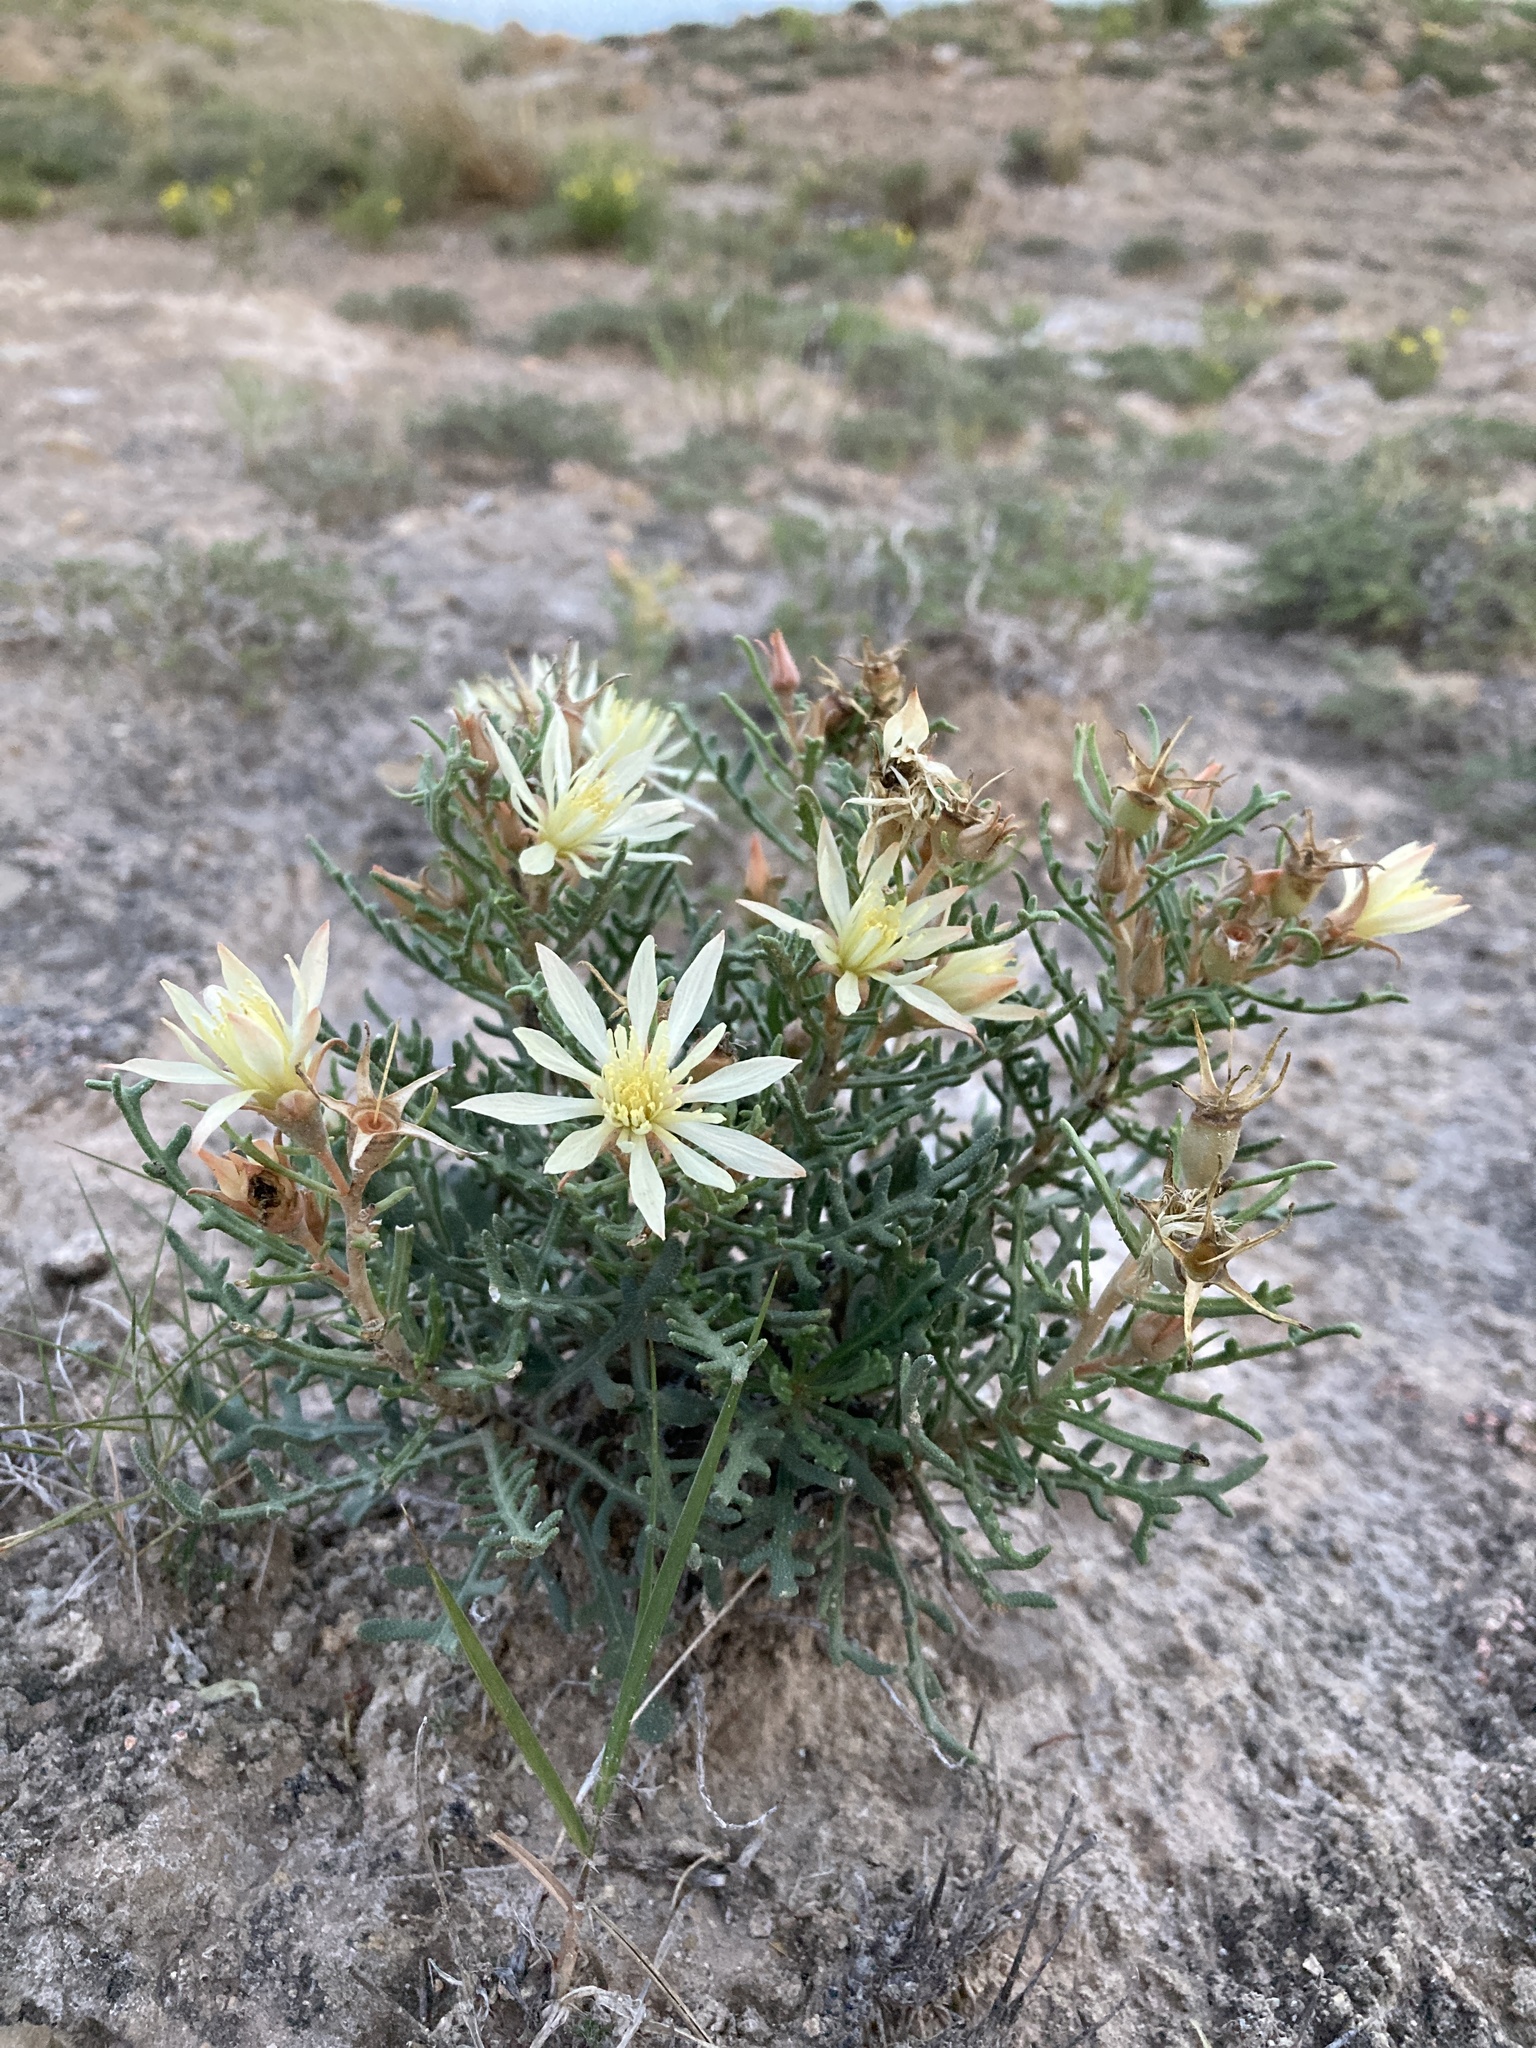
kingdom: Plantae
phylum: Tracheophyta
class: Magnoliopsida
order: Cornales
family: Loasaceae
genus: Mentzelia
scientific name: Mentzelia humilis
